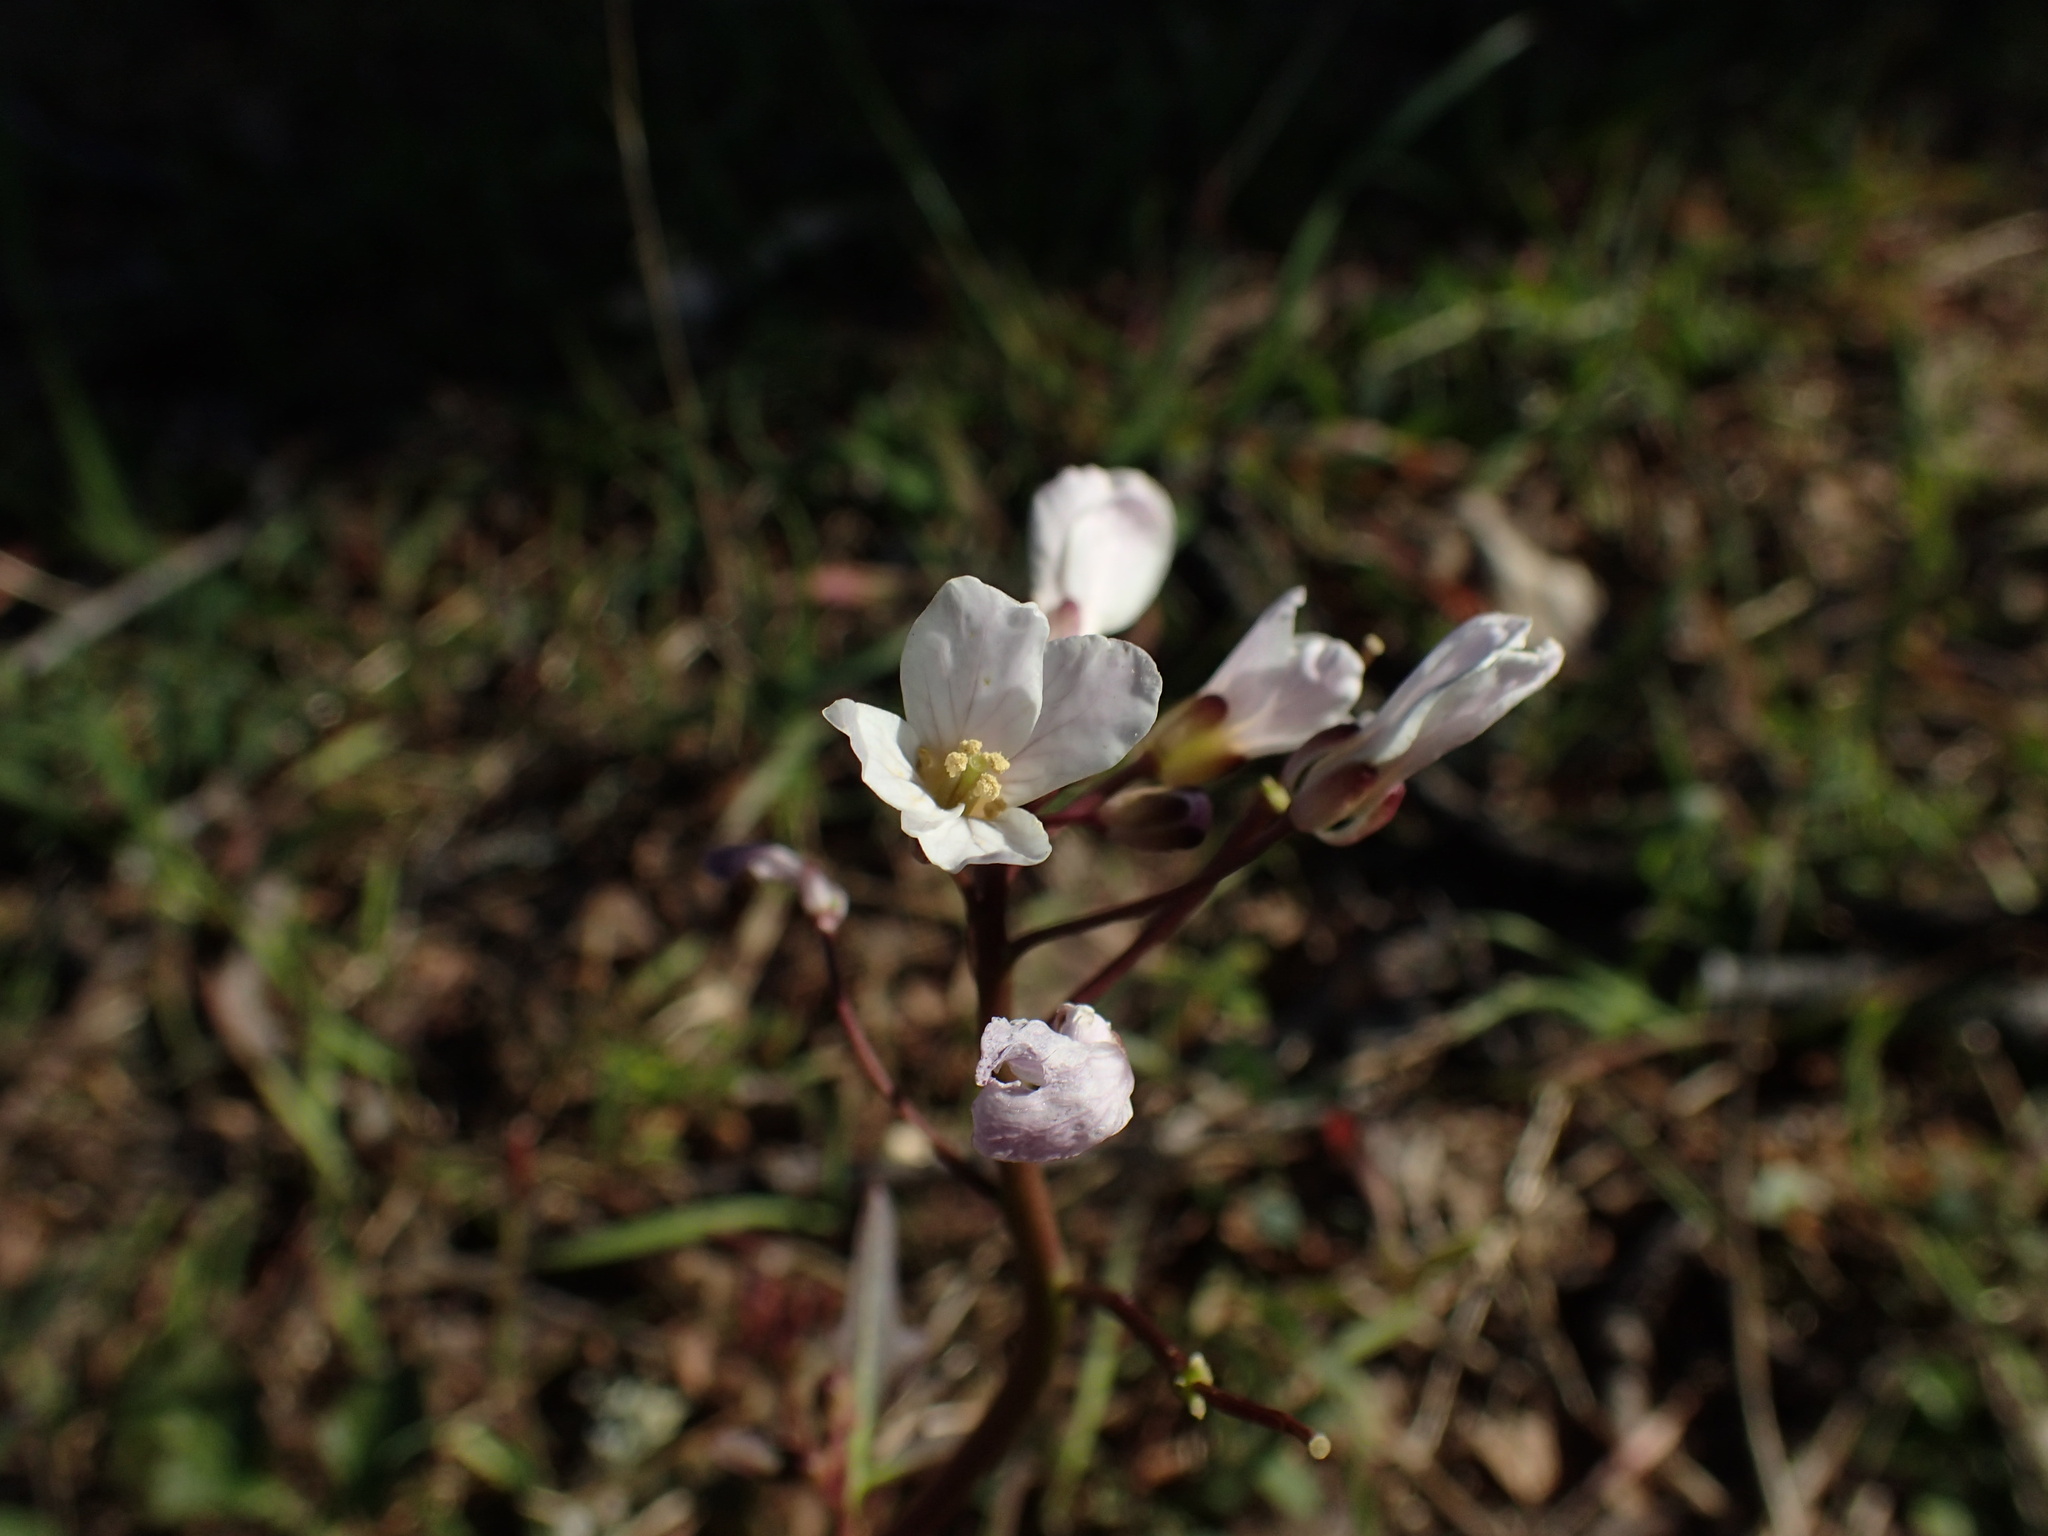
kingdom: Plantae
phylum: Tracheophyta
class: Magnoliopsida
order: Brassicales
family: Brassicaceae
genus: Cardamine
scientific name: Cardamine californica
